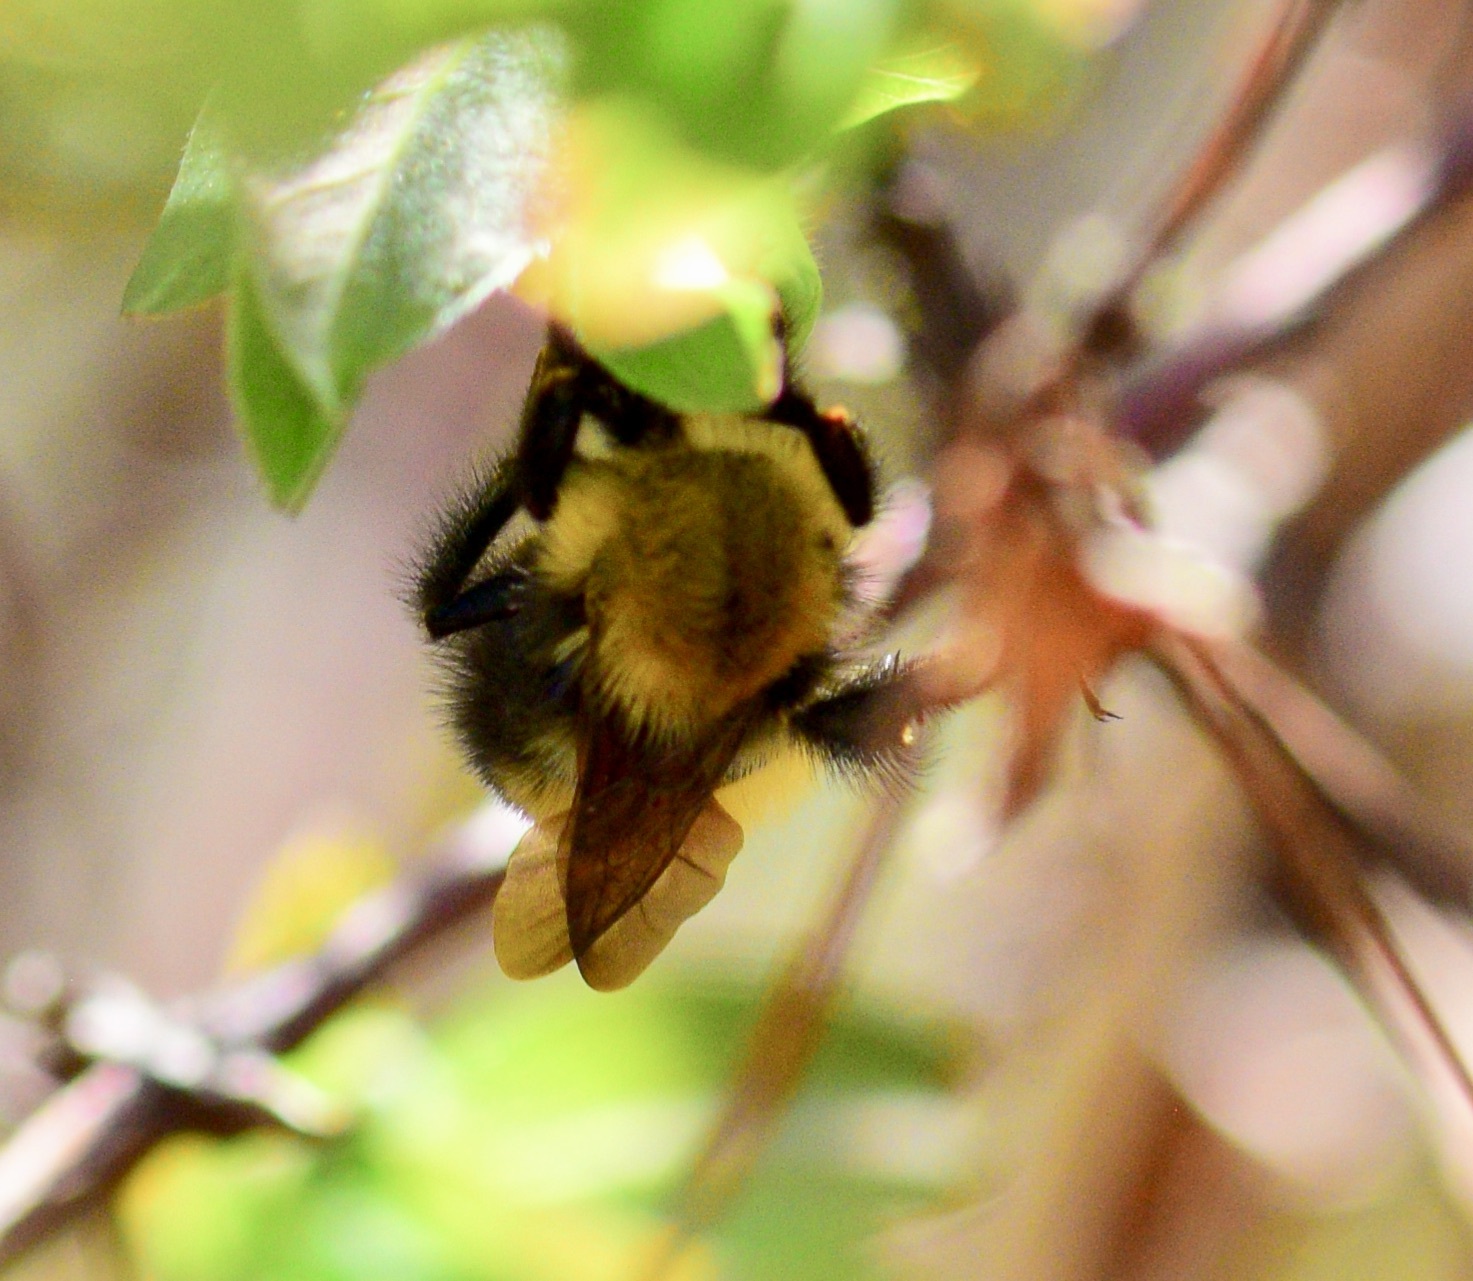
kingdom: Animalia
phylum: Arthropoda
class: Insecta
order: Hymenoptera
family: Apidae
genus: Bombus
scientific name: Bombus perplexus
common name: Confusing bumble bee
